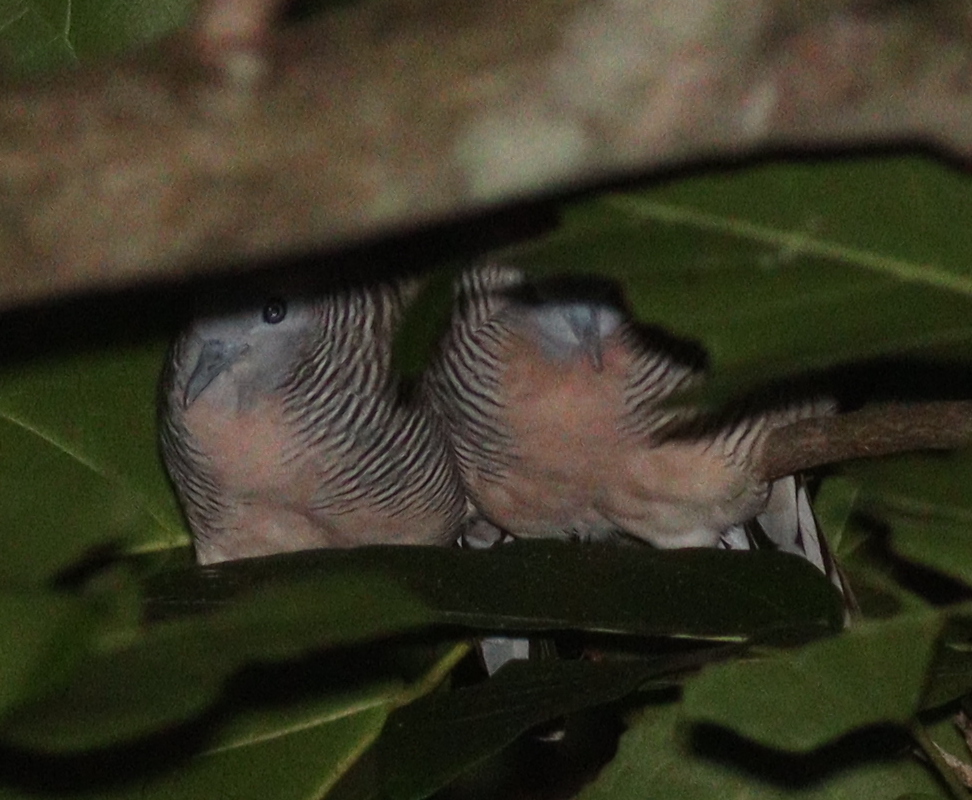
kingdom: Animalia
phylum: Chordata
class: Aves
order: Columbiformes
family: Columbidae
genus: Geopelia
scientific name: Geopelia striata
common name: Zebra dove
